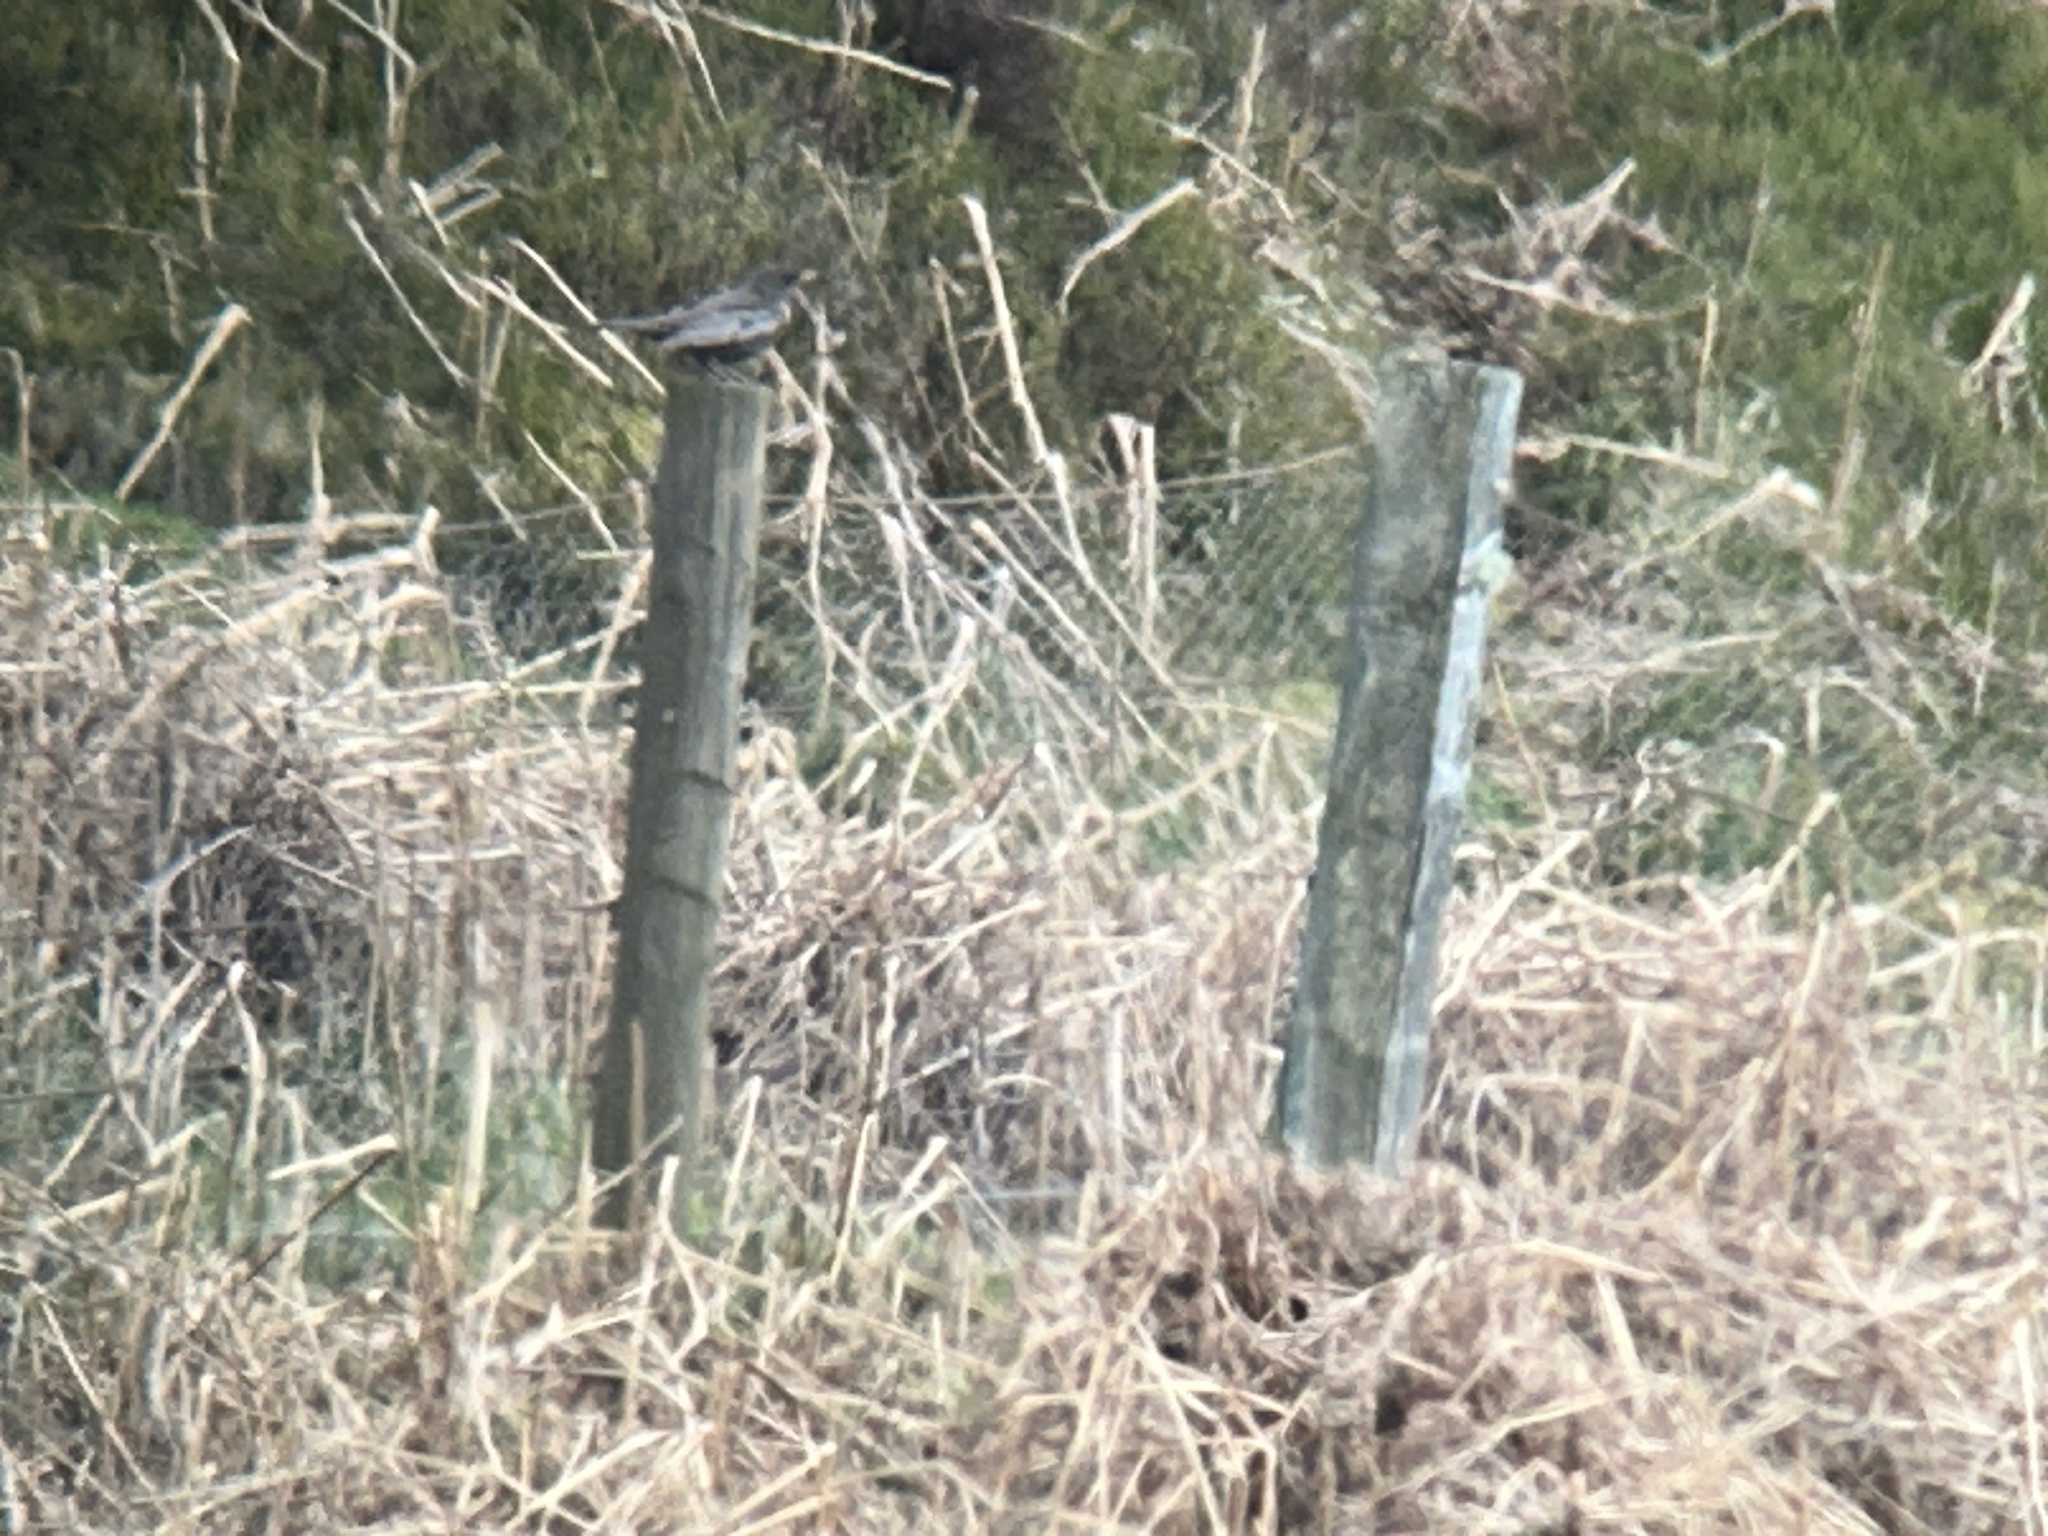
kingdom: Animalia
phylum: Chordata
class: Aves
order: Passeriformes
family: Turdidae
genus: Turdus
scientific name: Turdus torquatus
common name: Ring ouzel
